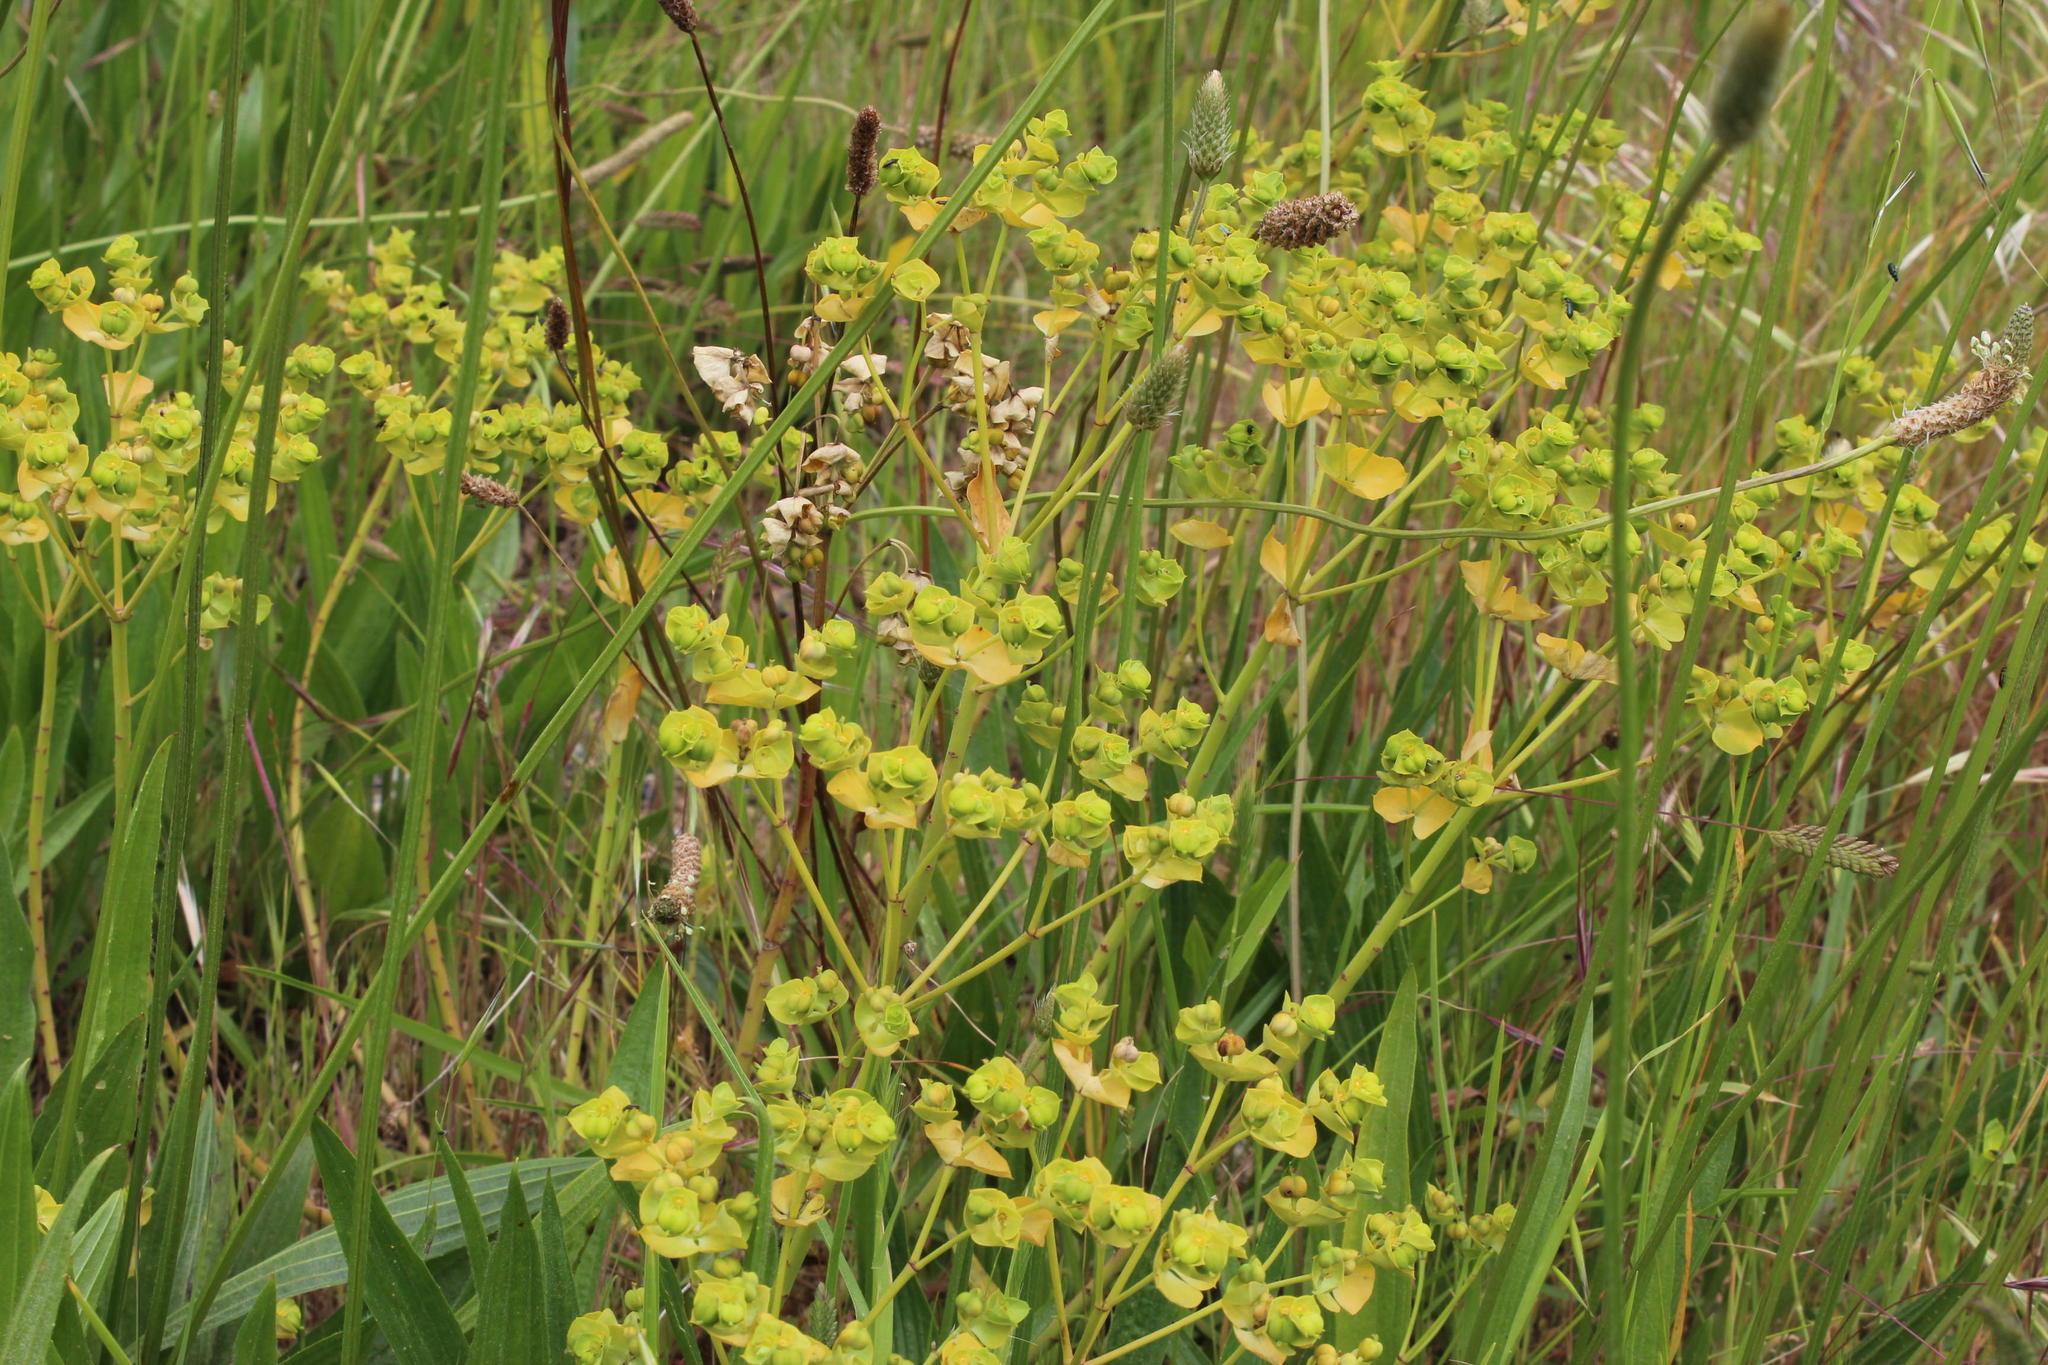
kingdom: Plantae
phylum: Tracheophyta
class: Magnoliopsida
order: Malpighiales
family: Euphorbiaceae
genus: Euphorbia
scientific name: Euphorbia terracina
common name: Geraldton carnation weed
